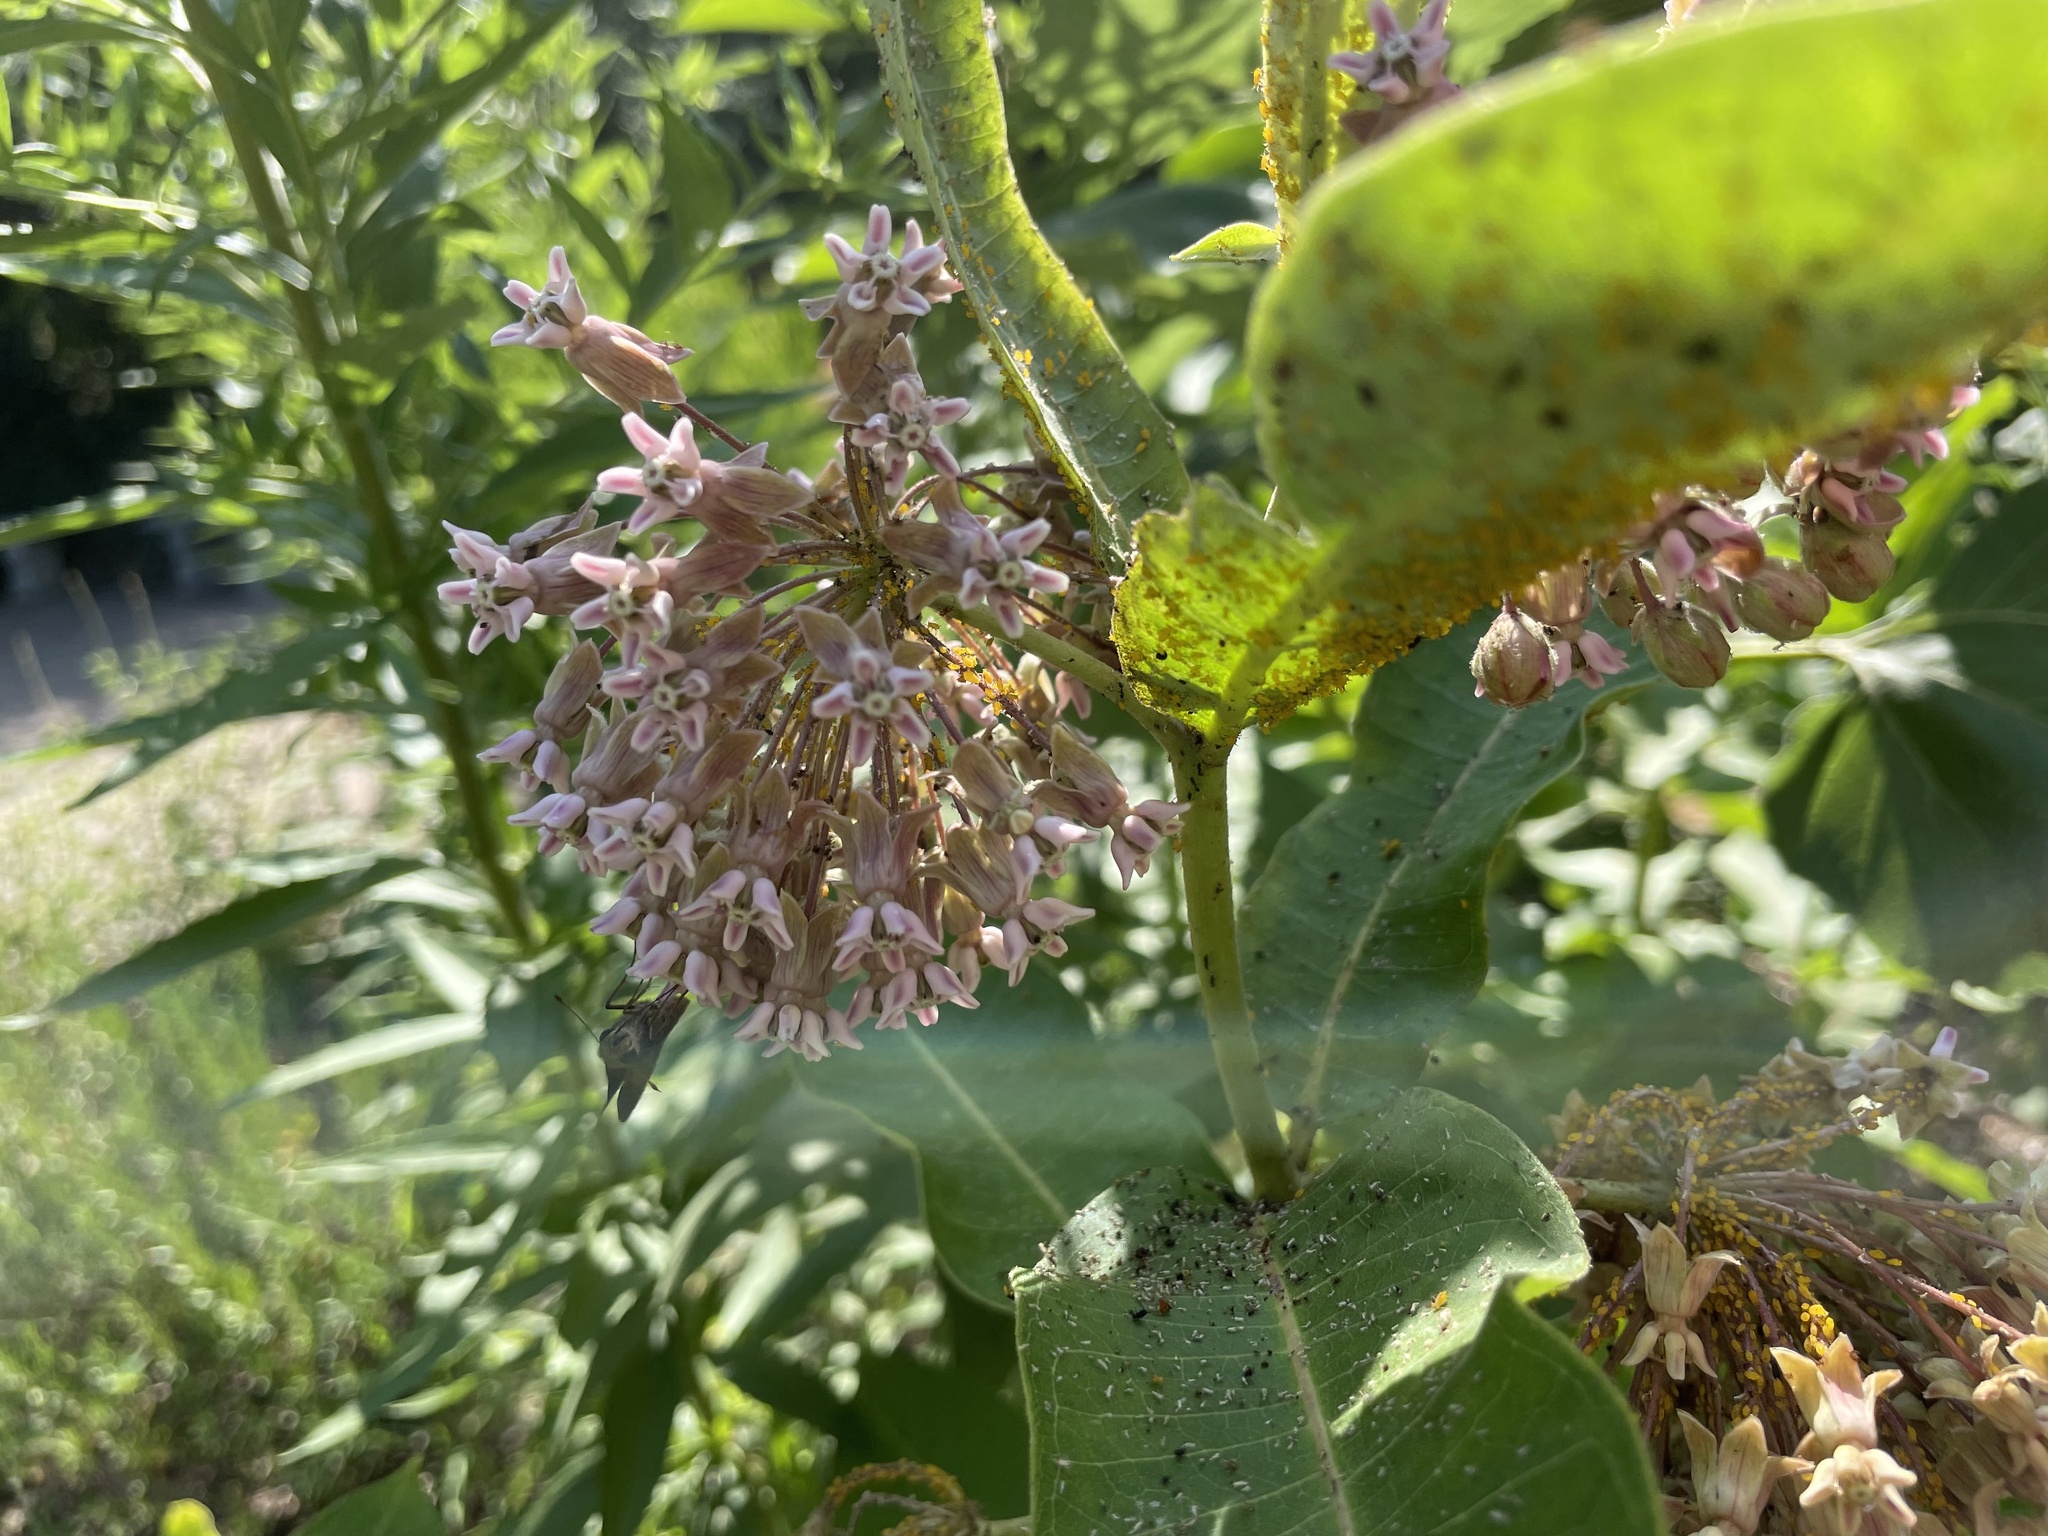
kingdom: Animalia
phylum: Arthropoda
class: Insecta
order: Hemiptera
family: Aphididae
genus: Aphis
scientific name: Aphis nerii
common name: Oleander aphid
